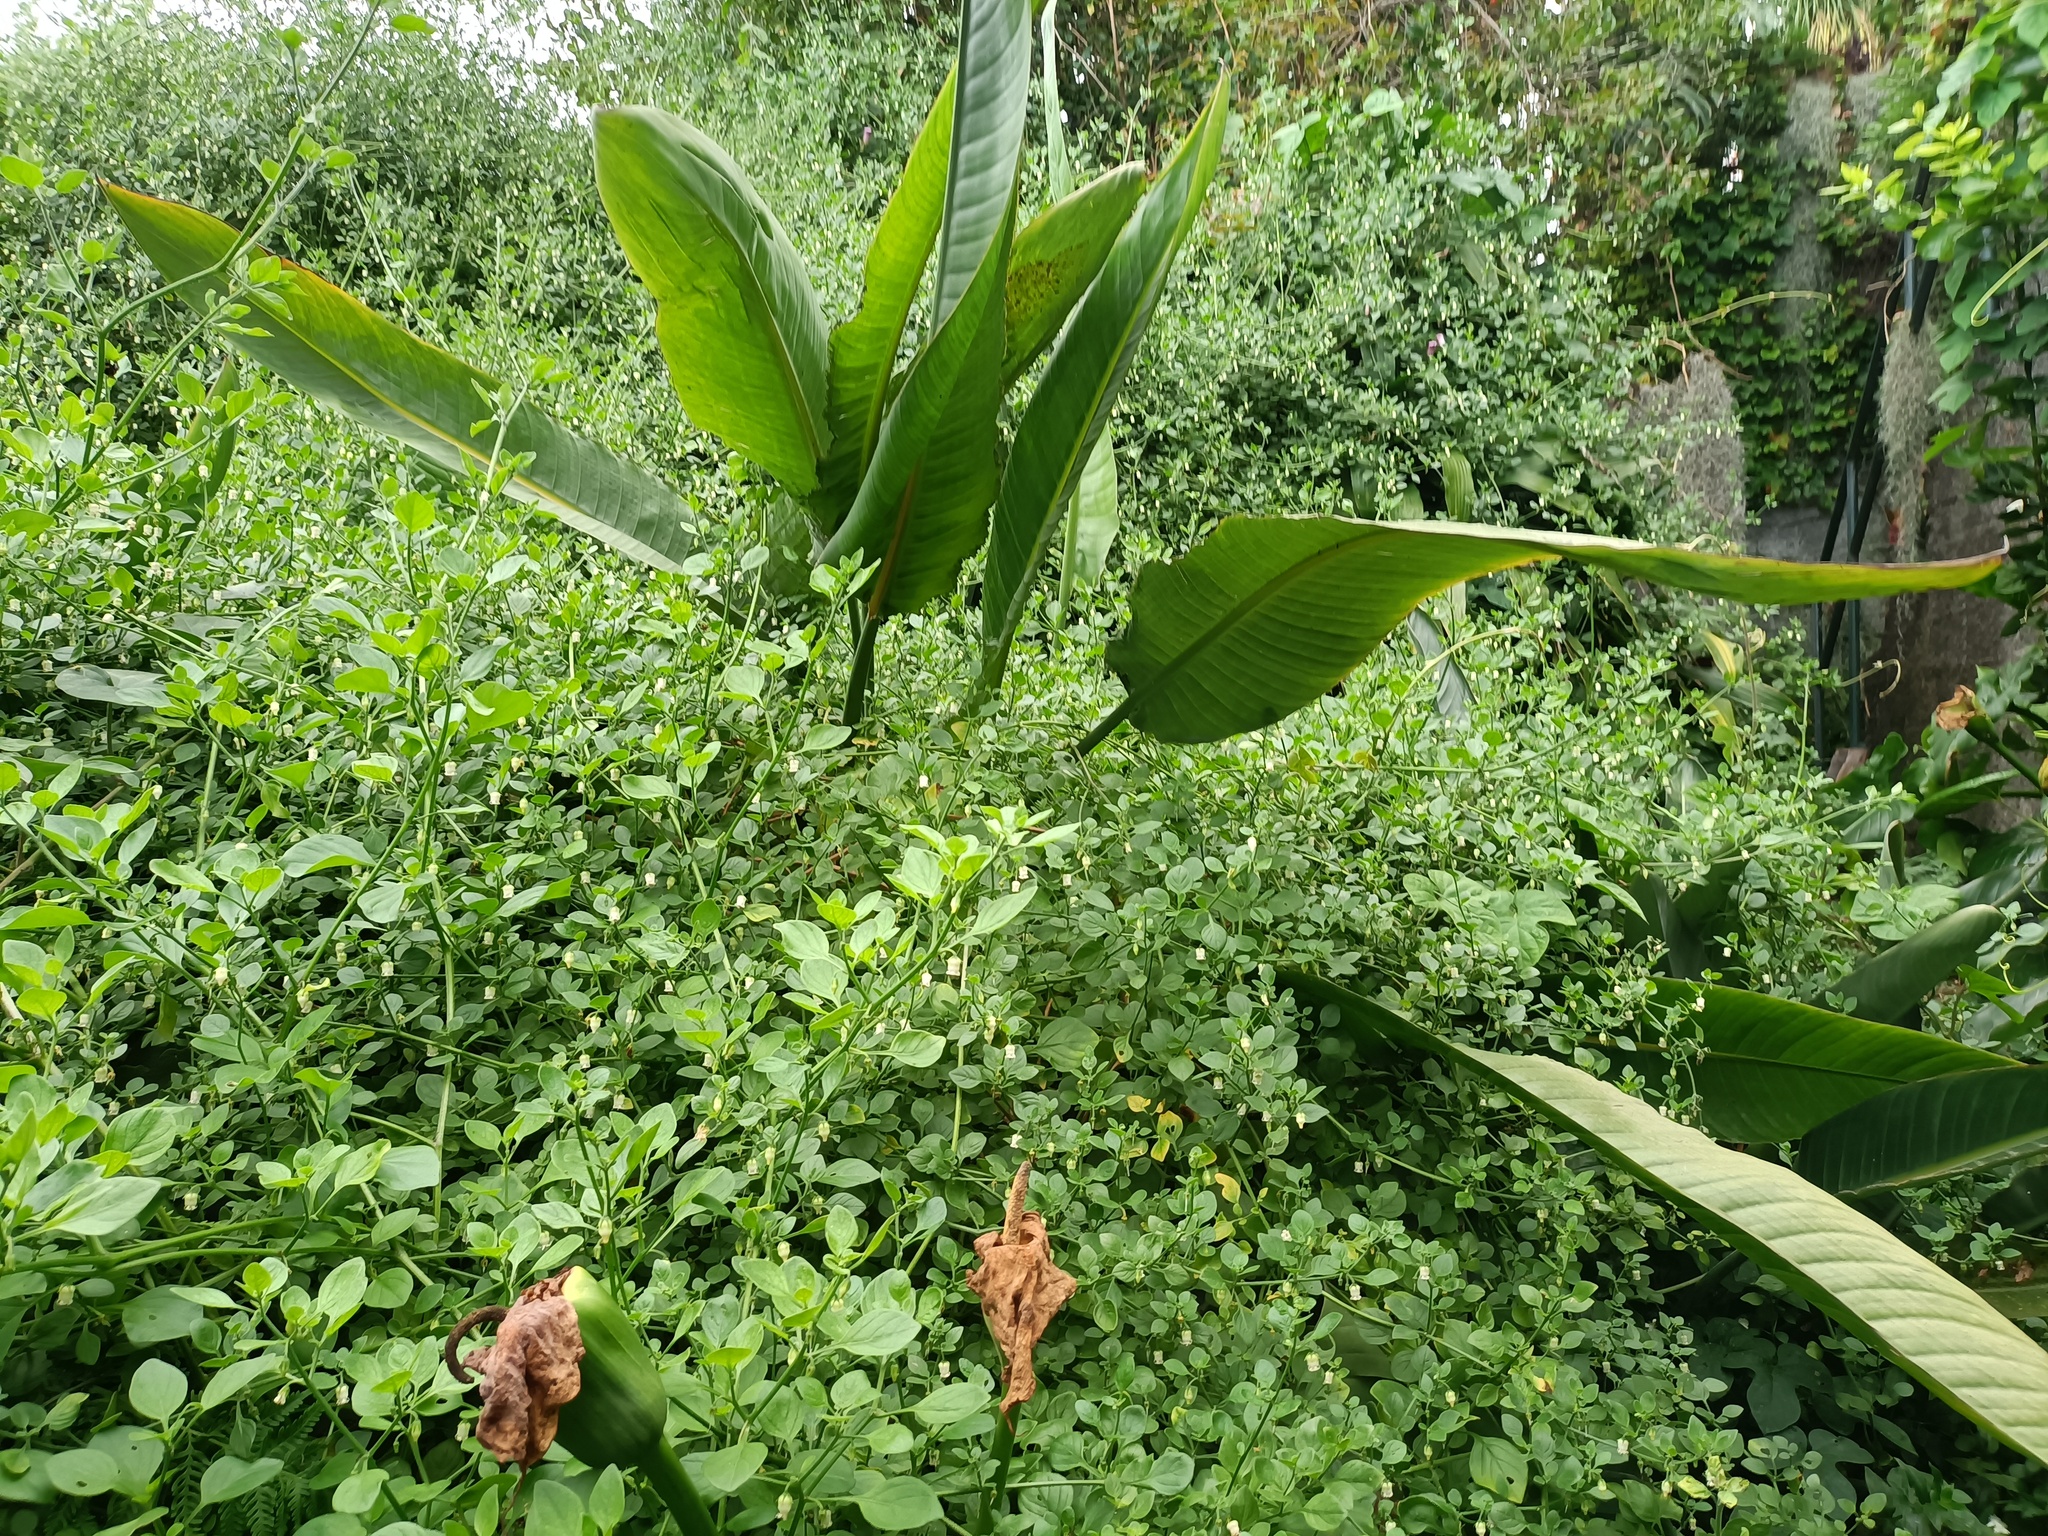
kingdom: Plantae
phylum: Tracheophyta
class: Magnoliopsida
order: Solanales
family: Solanaceae
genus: Salpichroa
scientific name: Salpichroa origanifolia
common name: Lily-of-the-valley-vine
